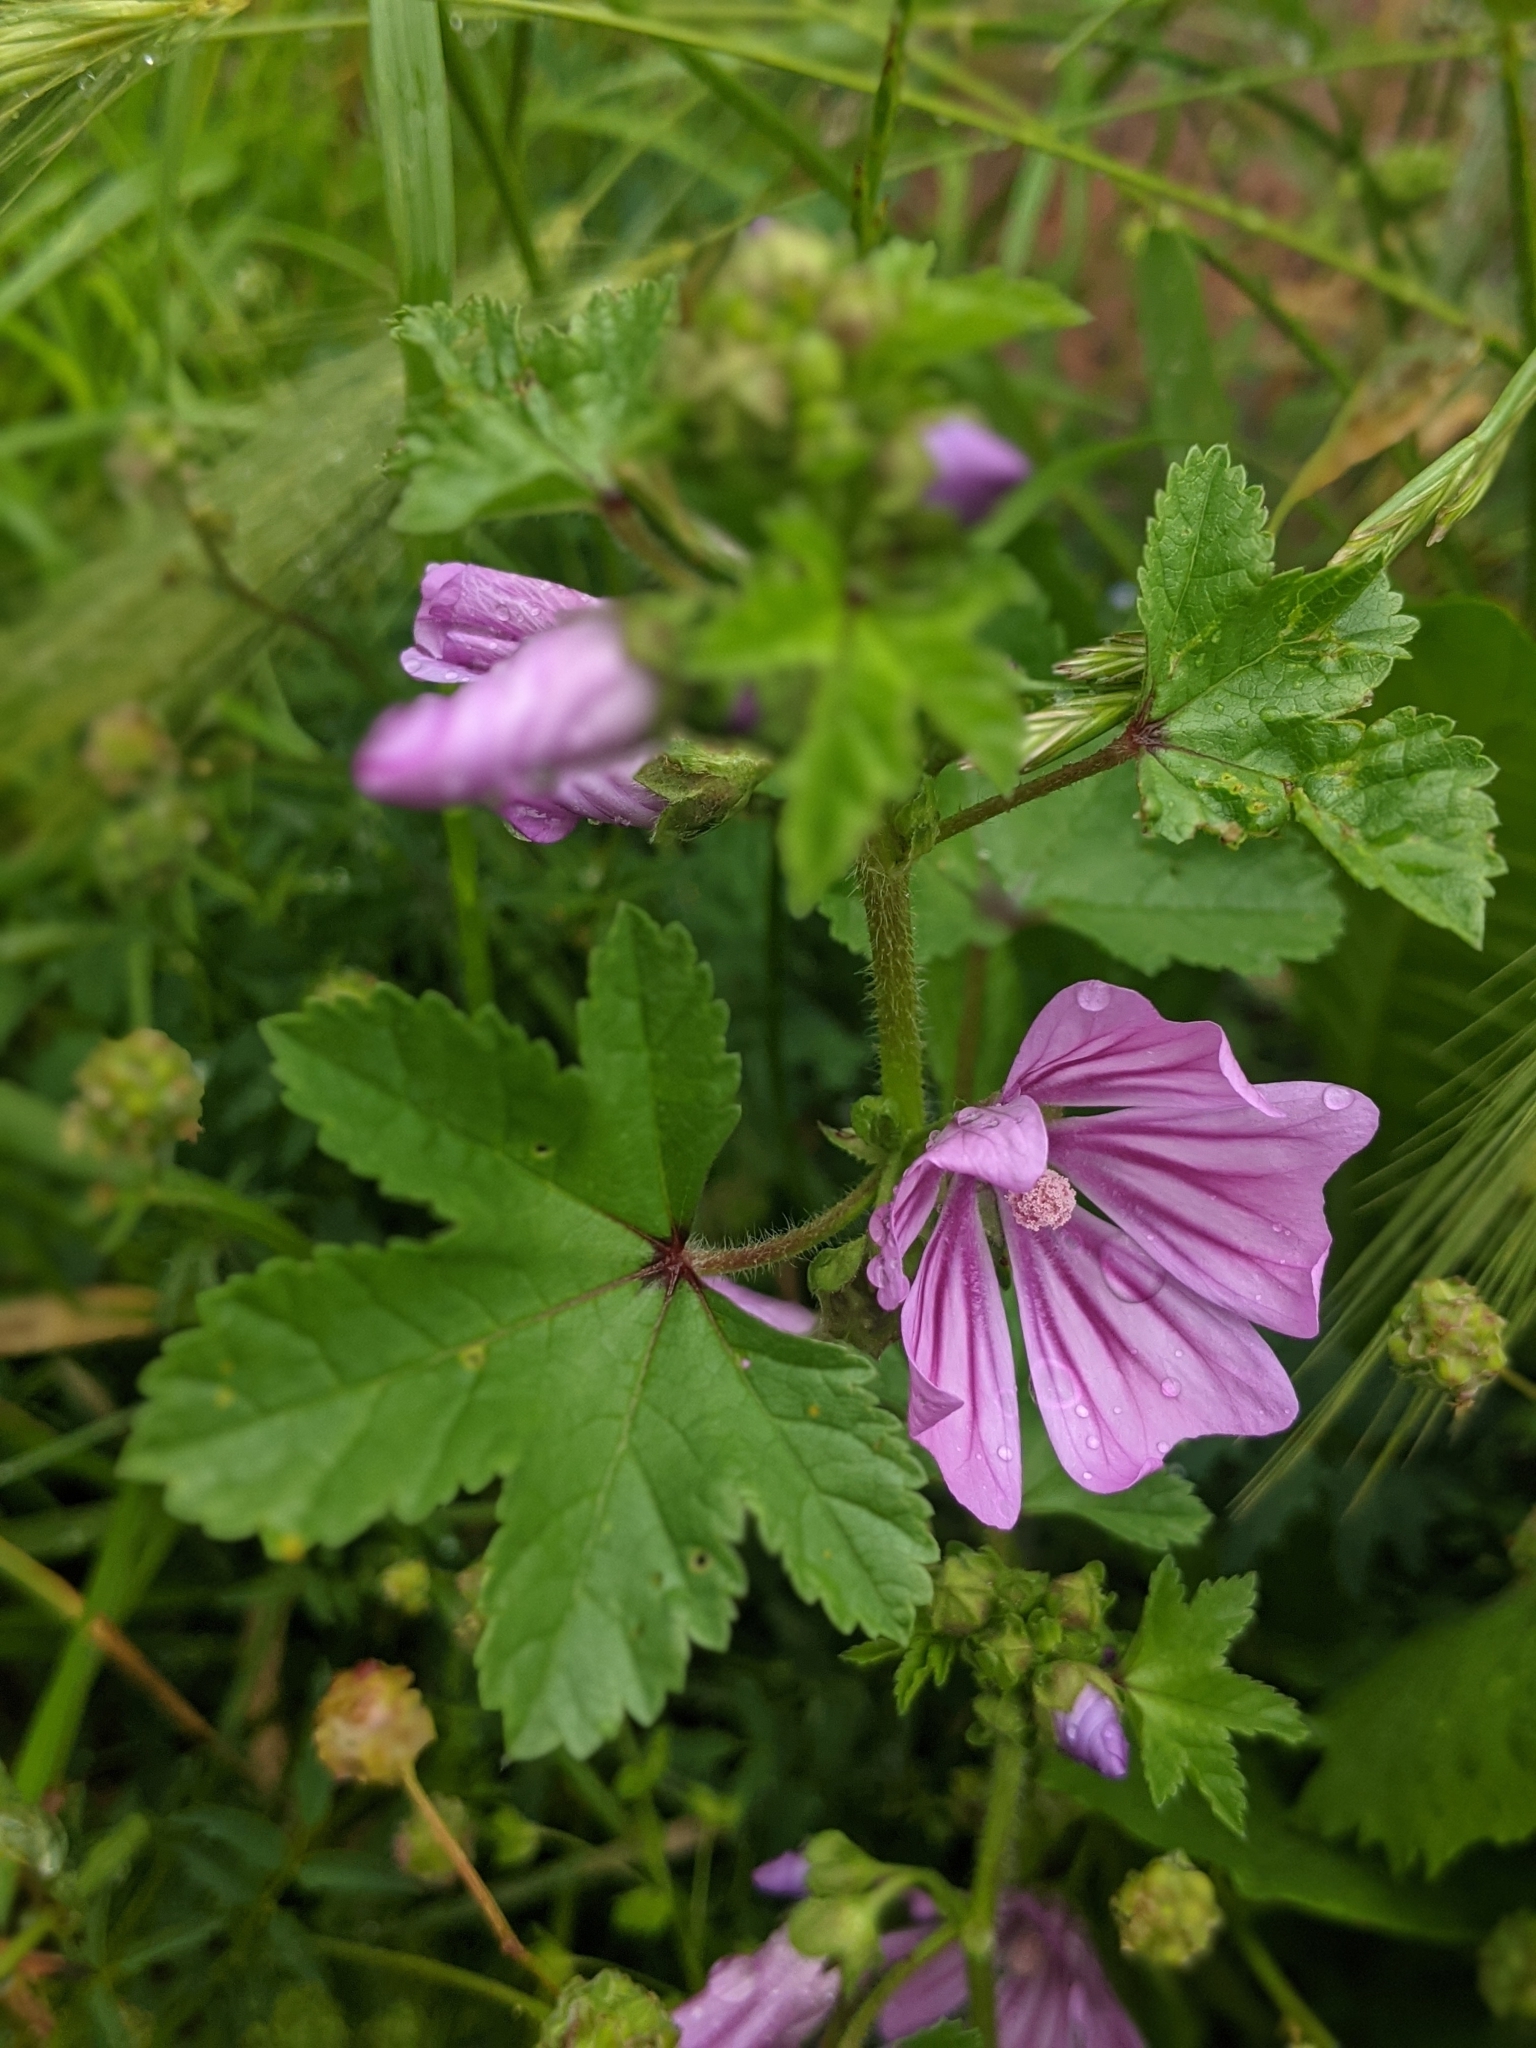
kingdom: Plantae
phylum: Tracheophyta
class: Magnoliopsida
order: Malvales
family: Malvaceae
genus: Malva
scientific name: Malva sylvestris
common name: Common mallow
